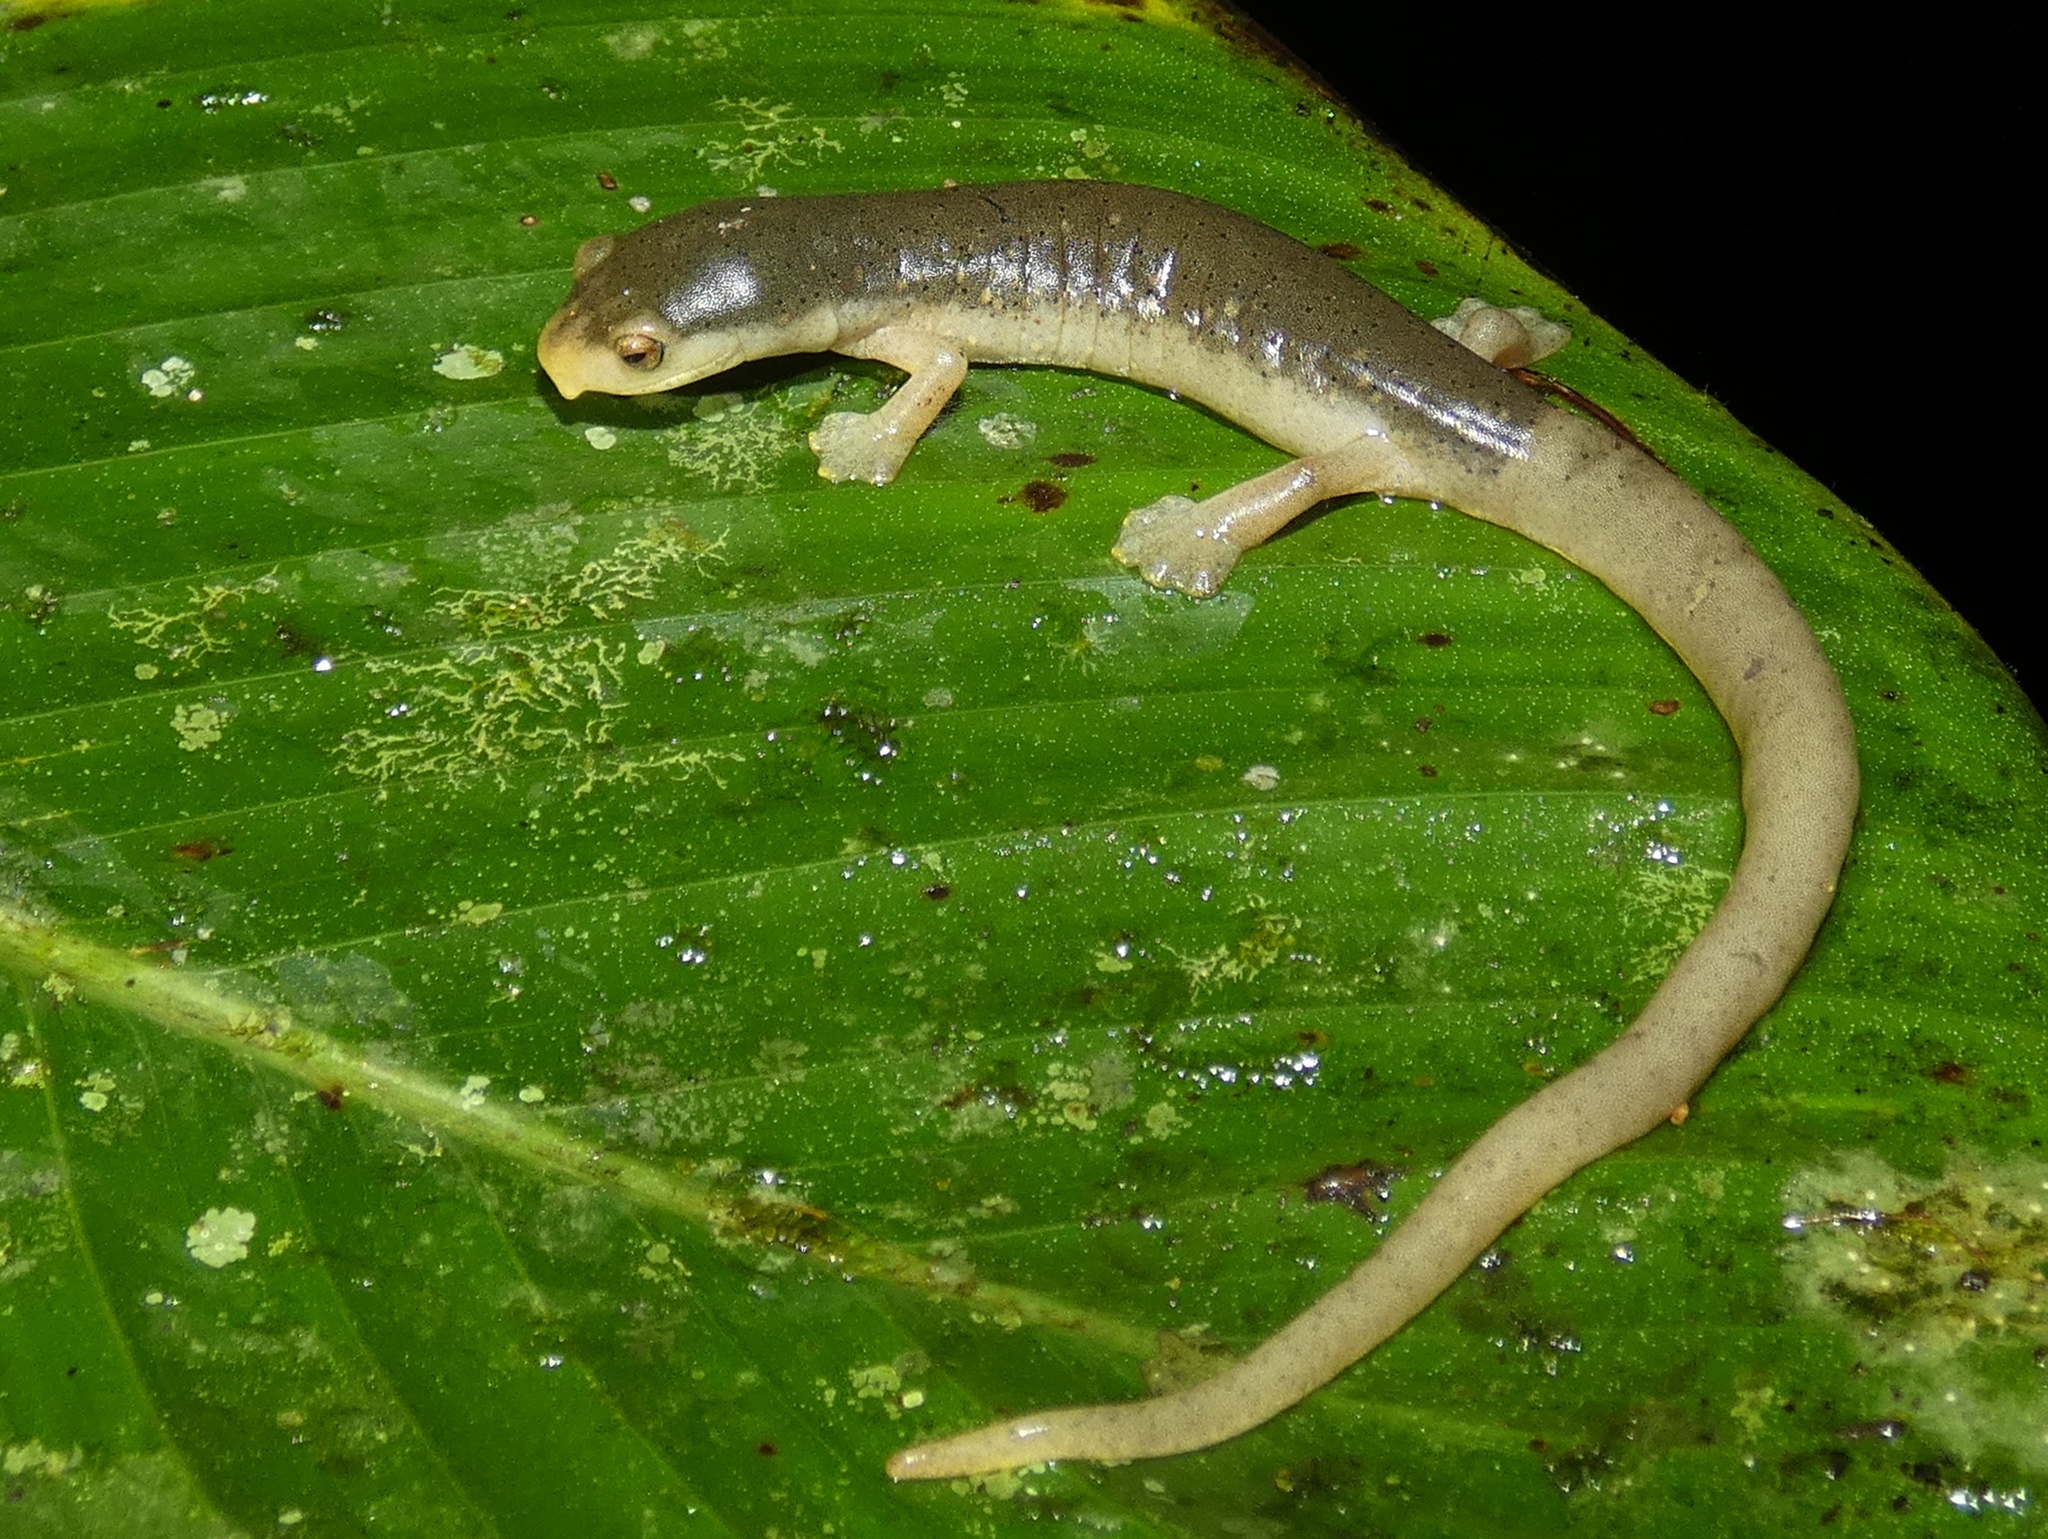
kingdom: Animalia
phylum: Chordata
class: Amphibia
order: Caudata
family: Plethodontidae
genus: Bolitoglossa
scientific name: Bolitoglossa schizodactyla
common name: Cocle mushroomtongue salamander
